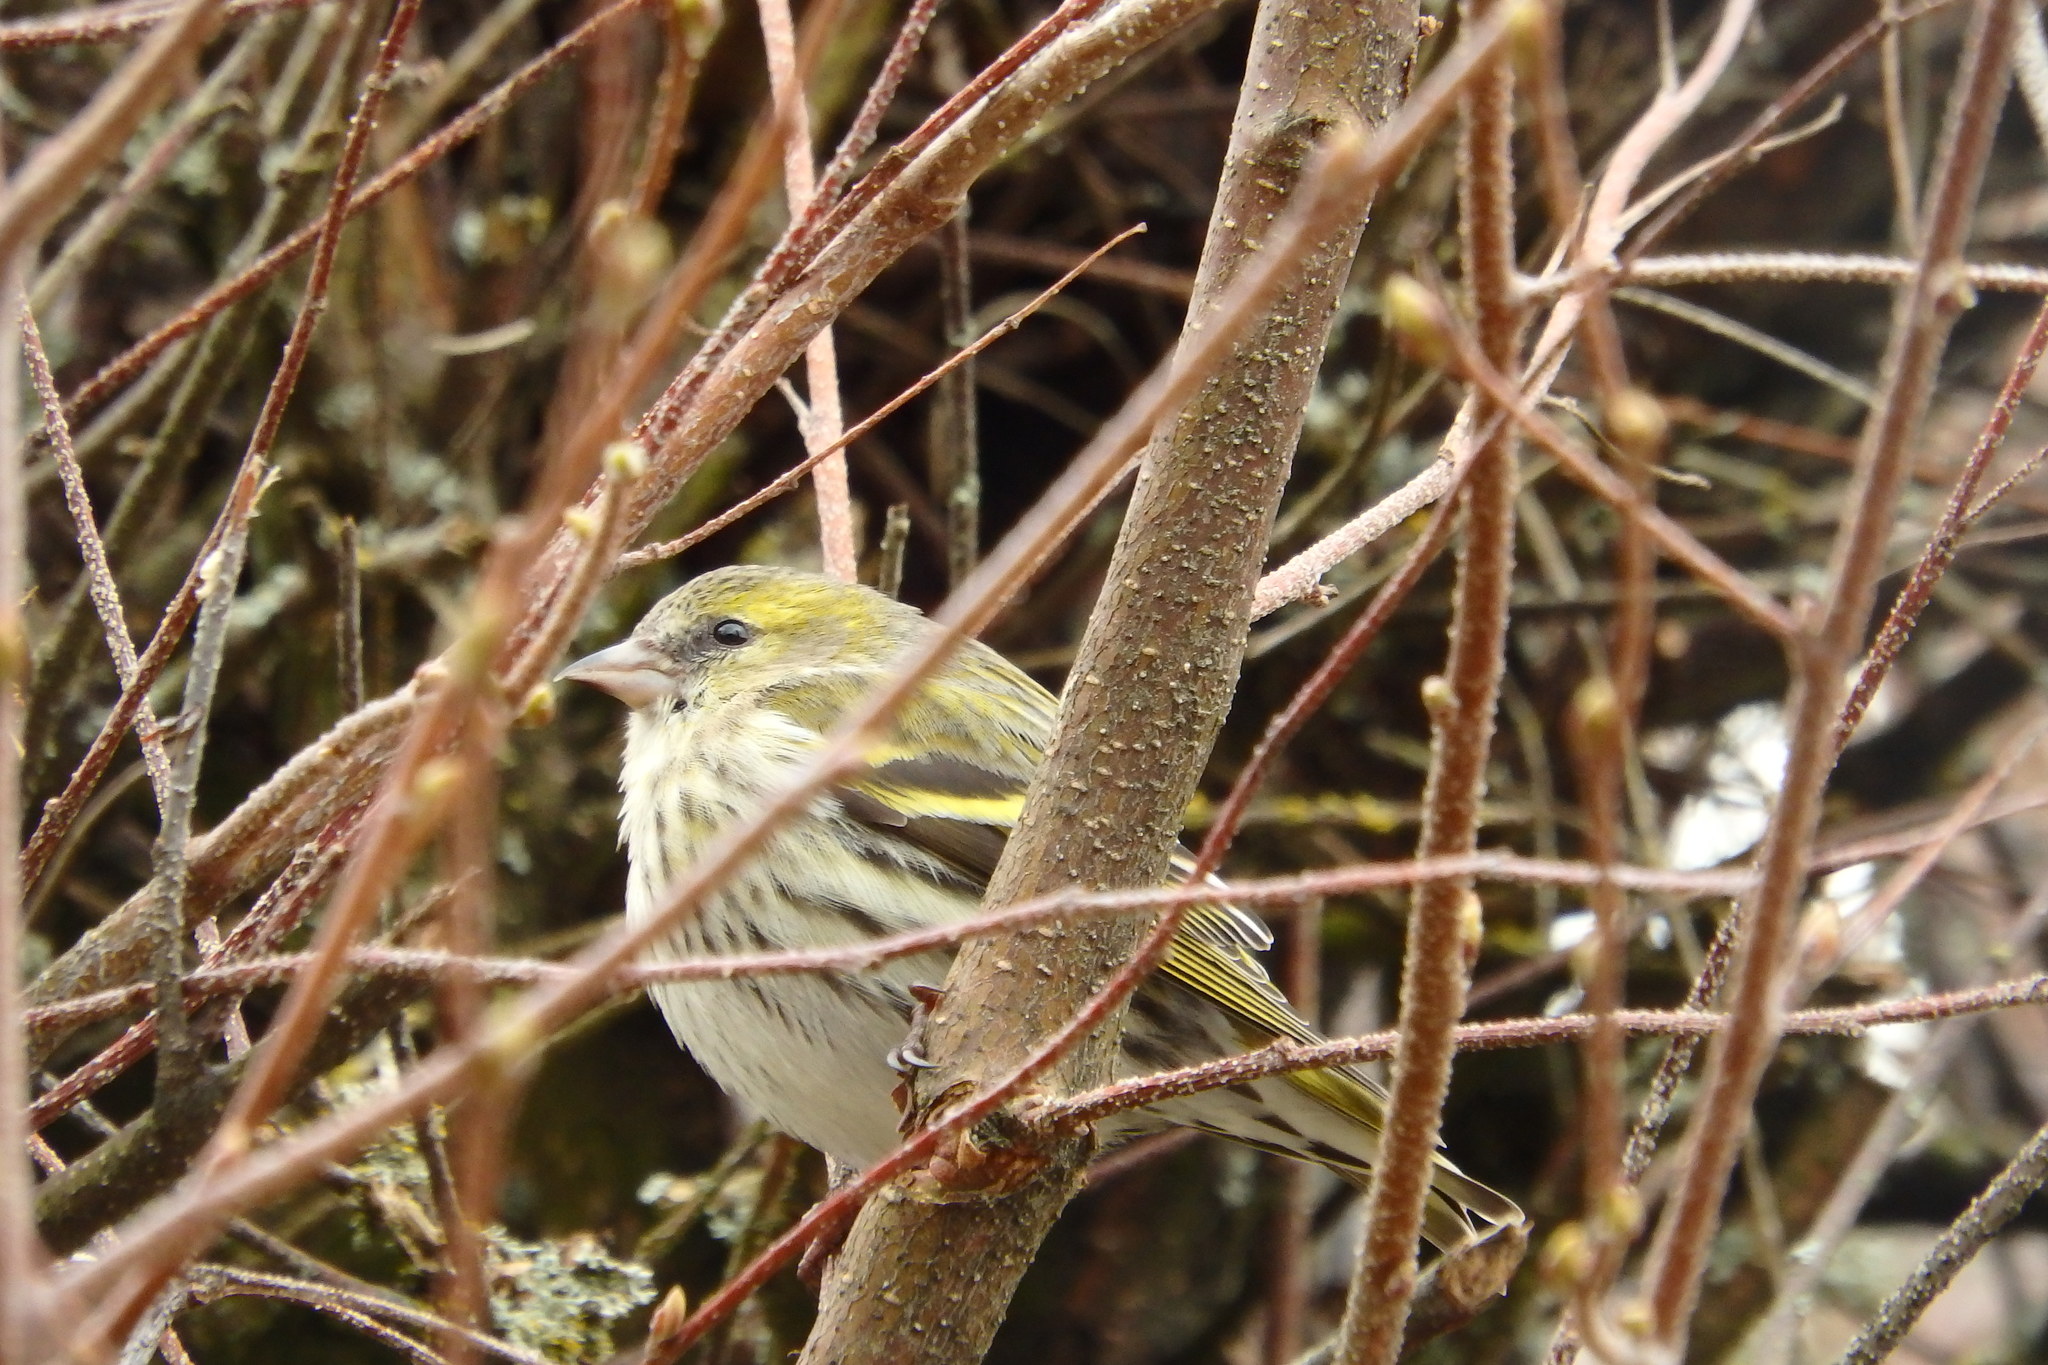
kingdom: Animalia
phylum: Chordata
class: Aves
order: Passeriformes
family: Fringillidae
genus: Spinus
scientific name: Spinus spinus
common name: Eurasian siskin
